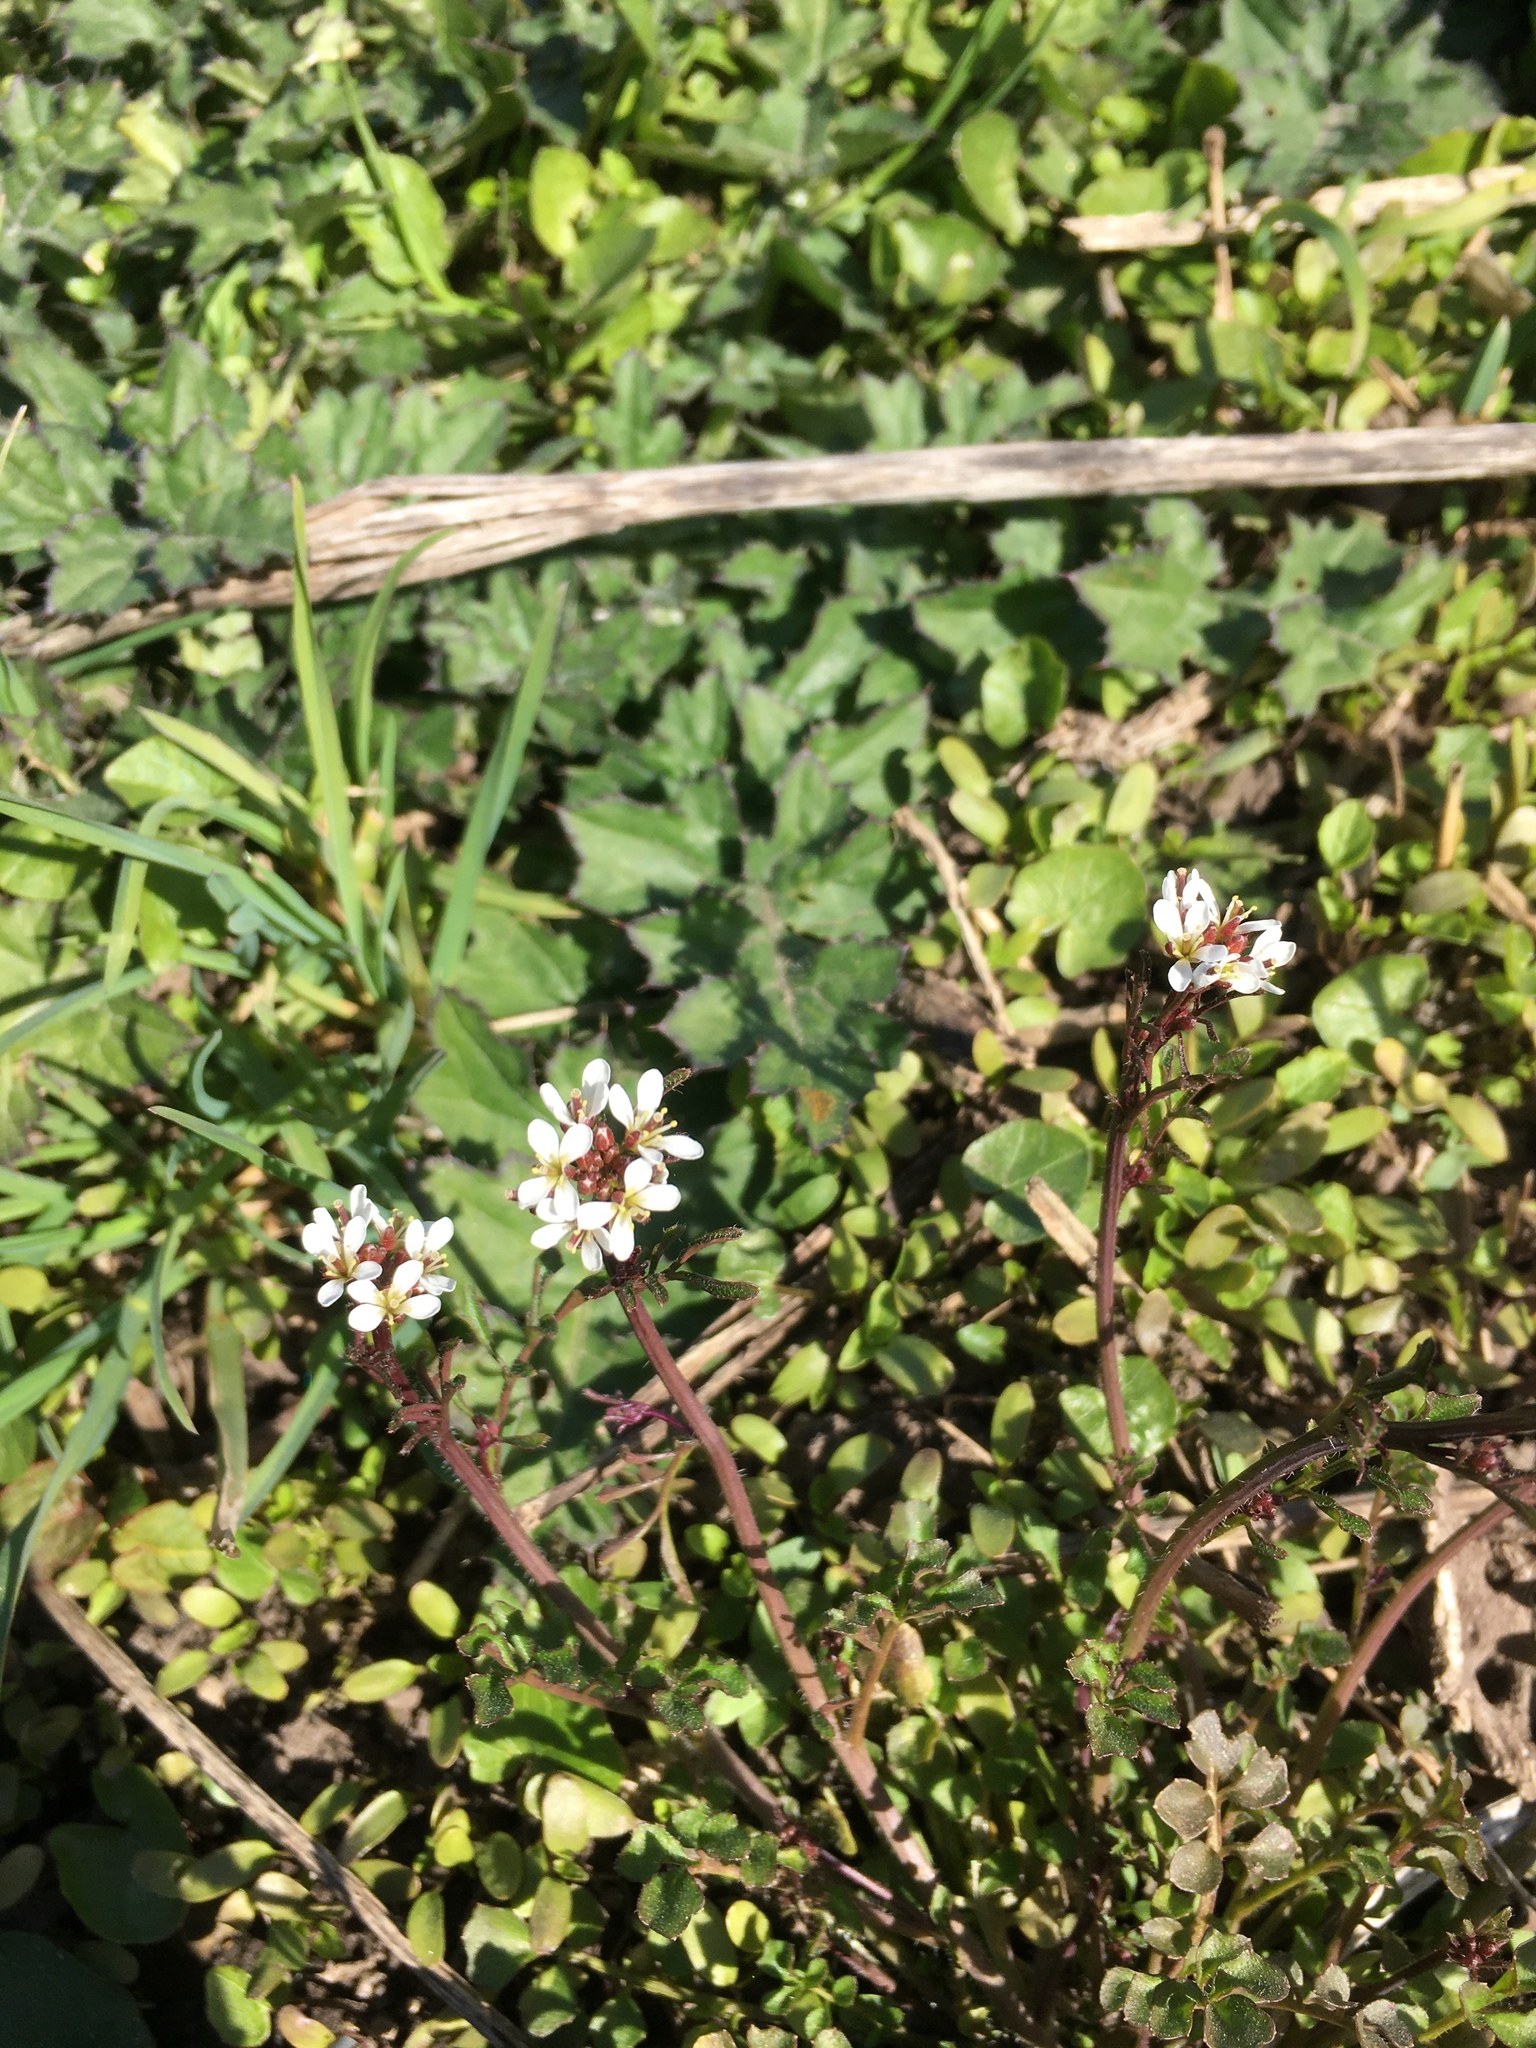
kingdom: Plantae
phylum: Tracheophyta
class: Magnoliopsida
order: Brassicales
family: Brassicaceae
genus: Cardamine
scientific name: Cardamine hirsuta
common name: Hairy bittercress
